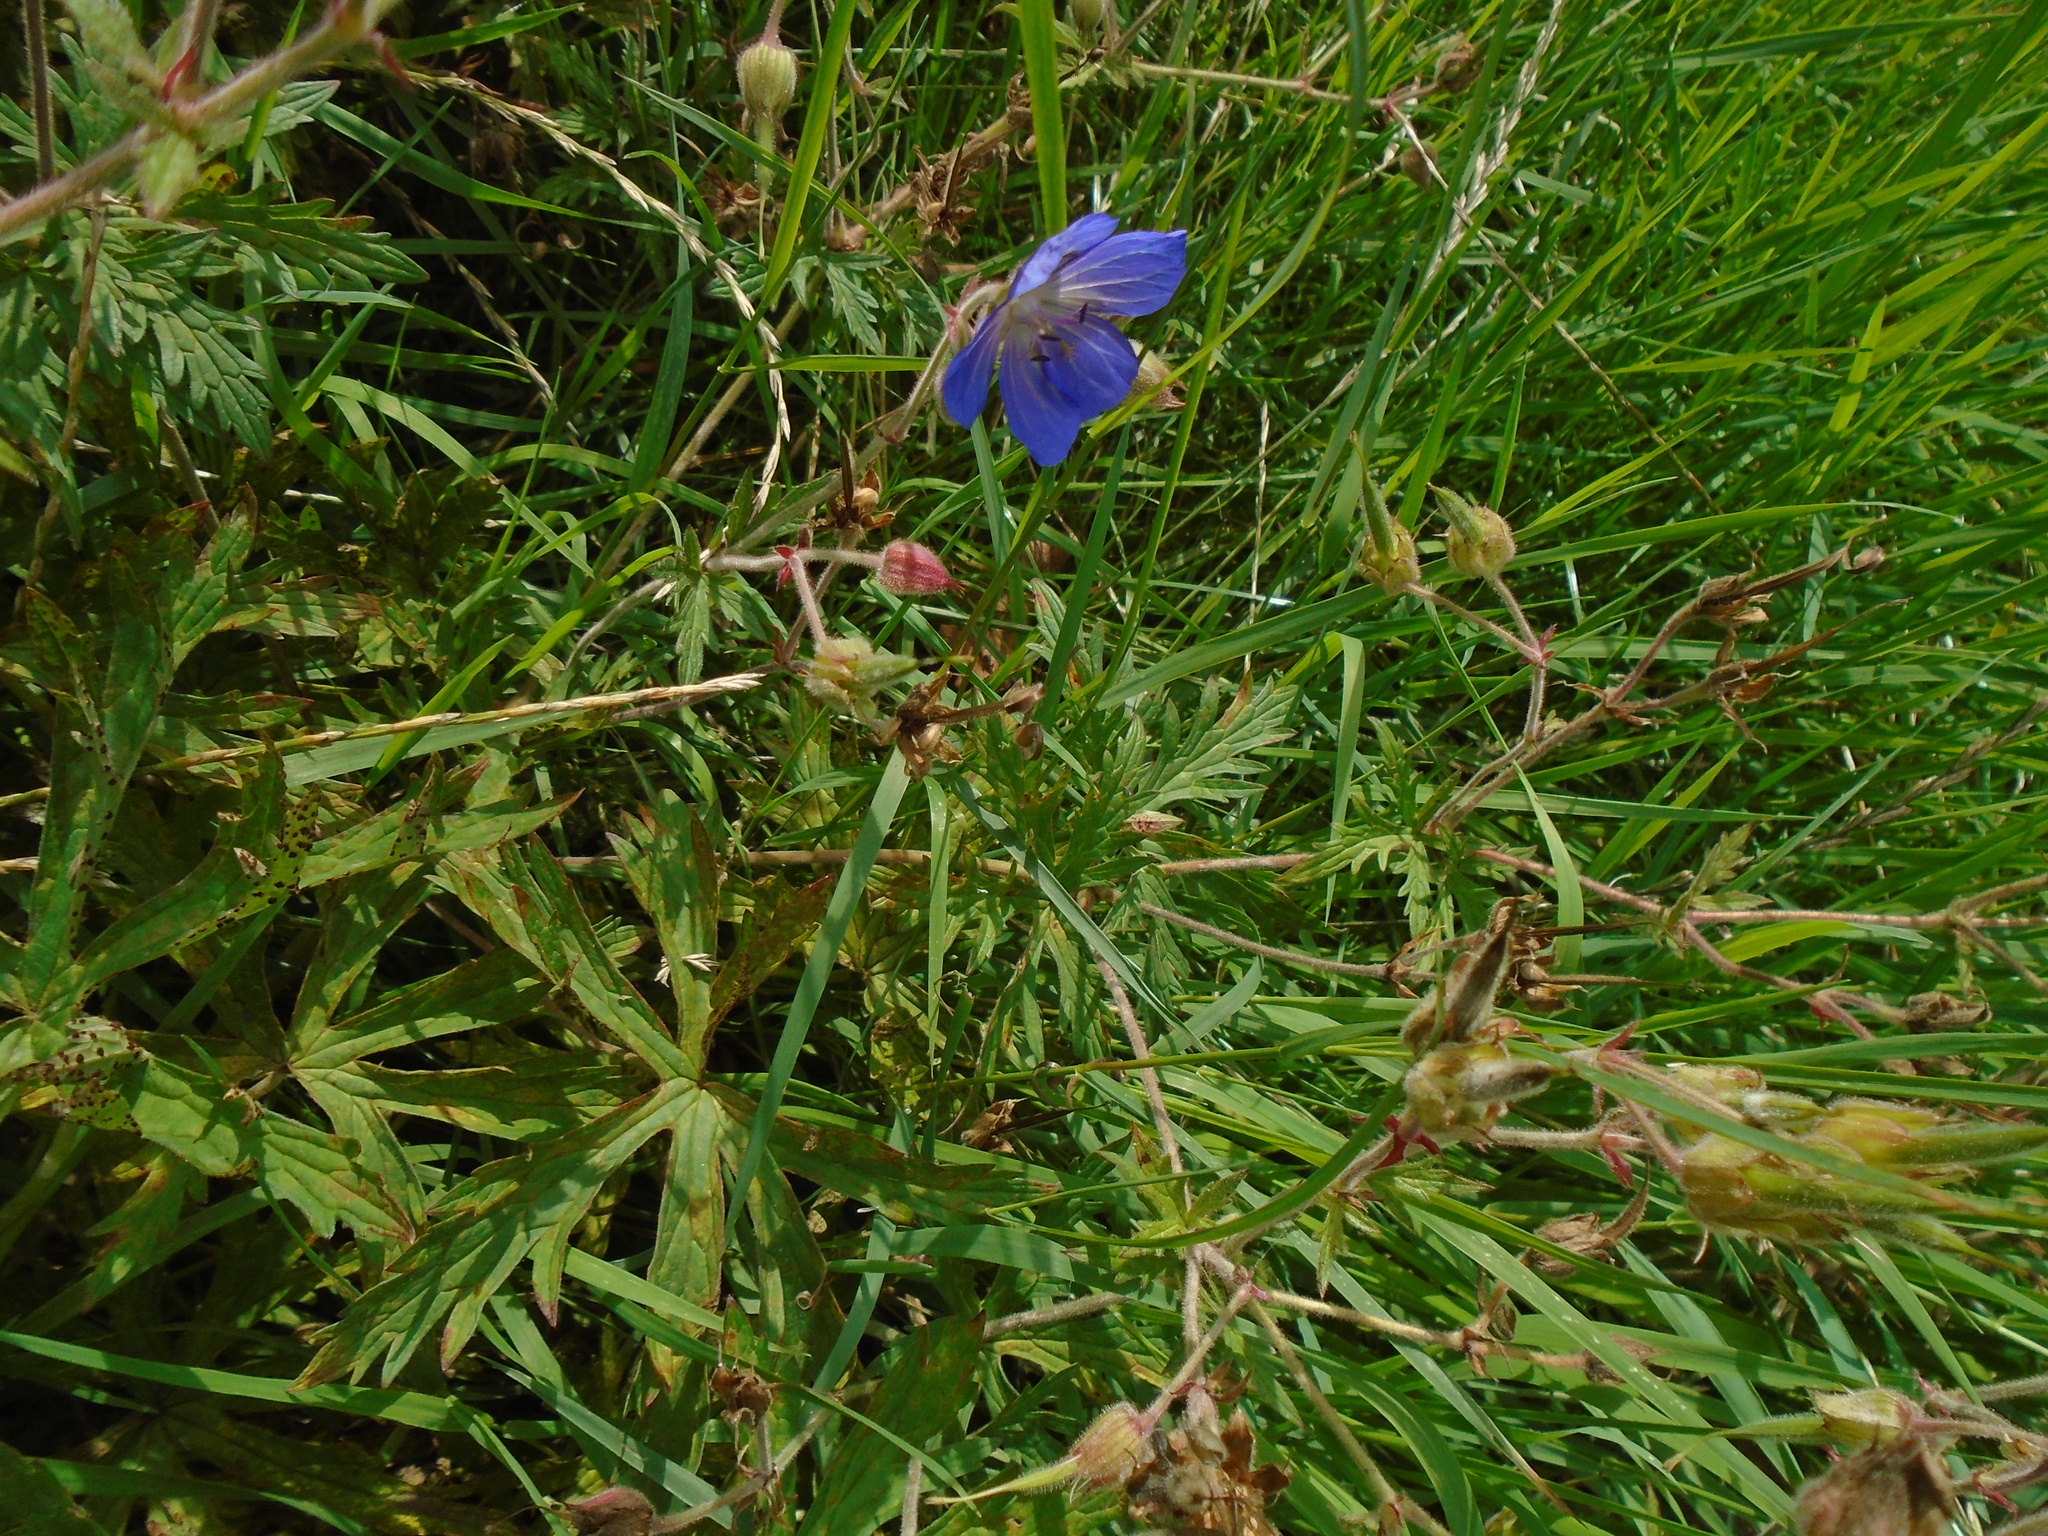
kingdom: Plantae
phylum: Tracheophyta
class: Magnoliopsida
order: Geraniales
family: Geraniaceae
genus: Geranium
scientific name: Geranium pratense
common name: Meadow crane's-bill
